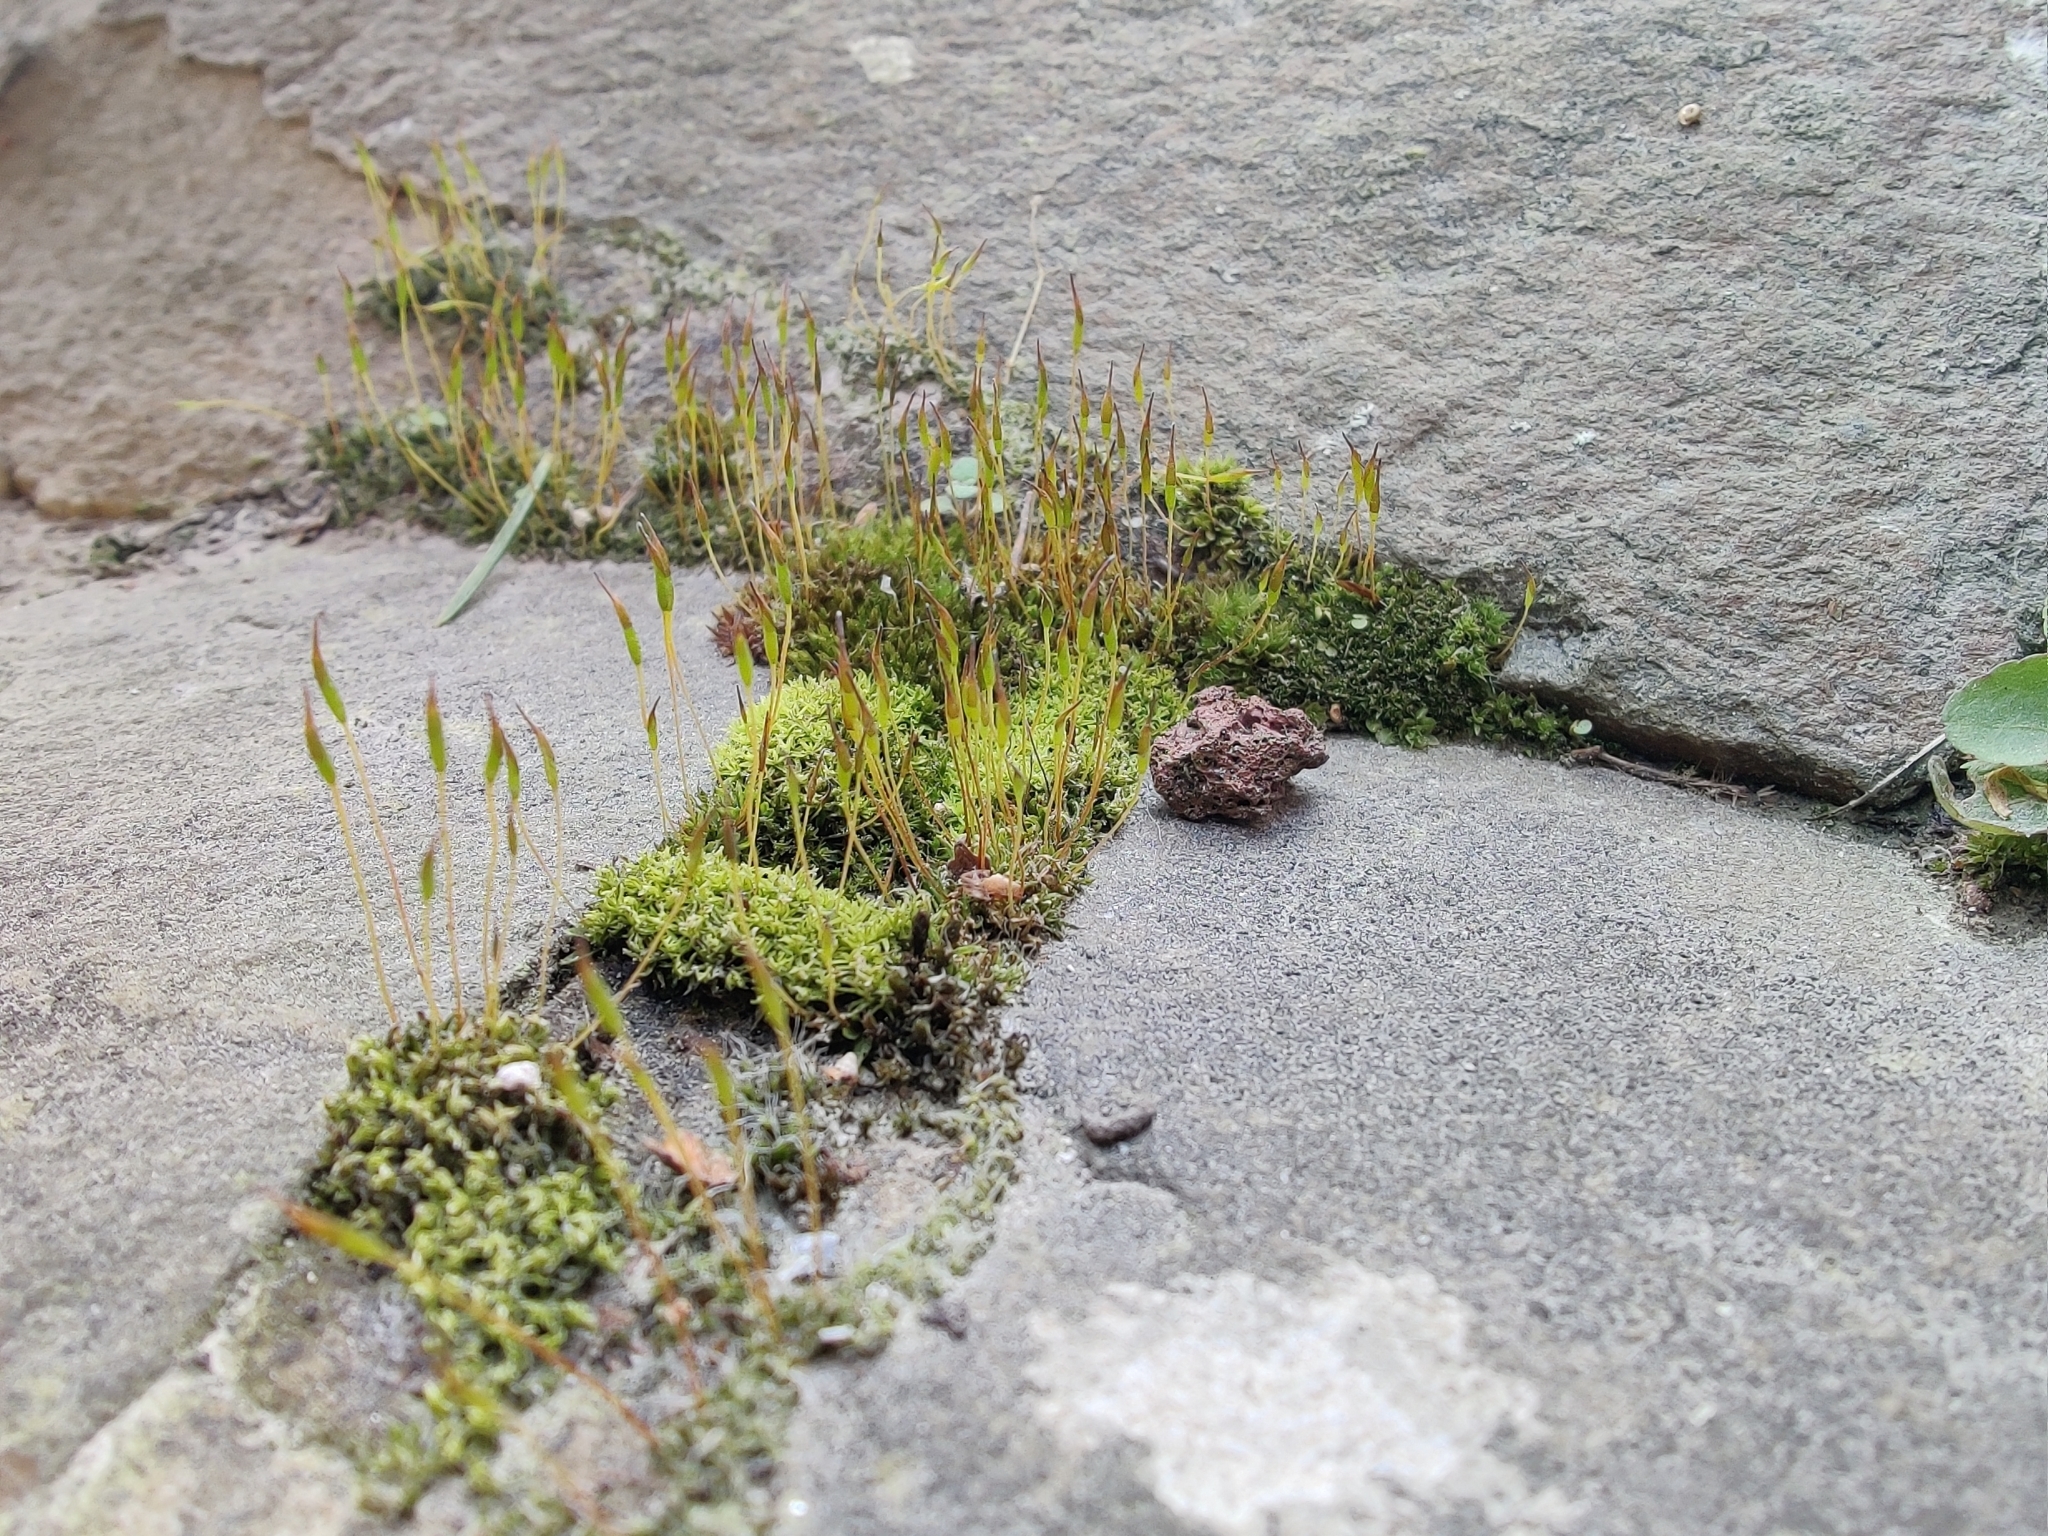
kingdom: Plantae
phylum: Bryophyta
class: Bryopsida
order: Pottiales
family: Pottiaceae
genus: Tortula
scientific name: Tortula muralis
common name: Wall screw-moss
